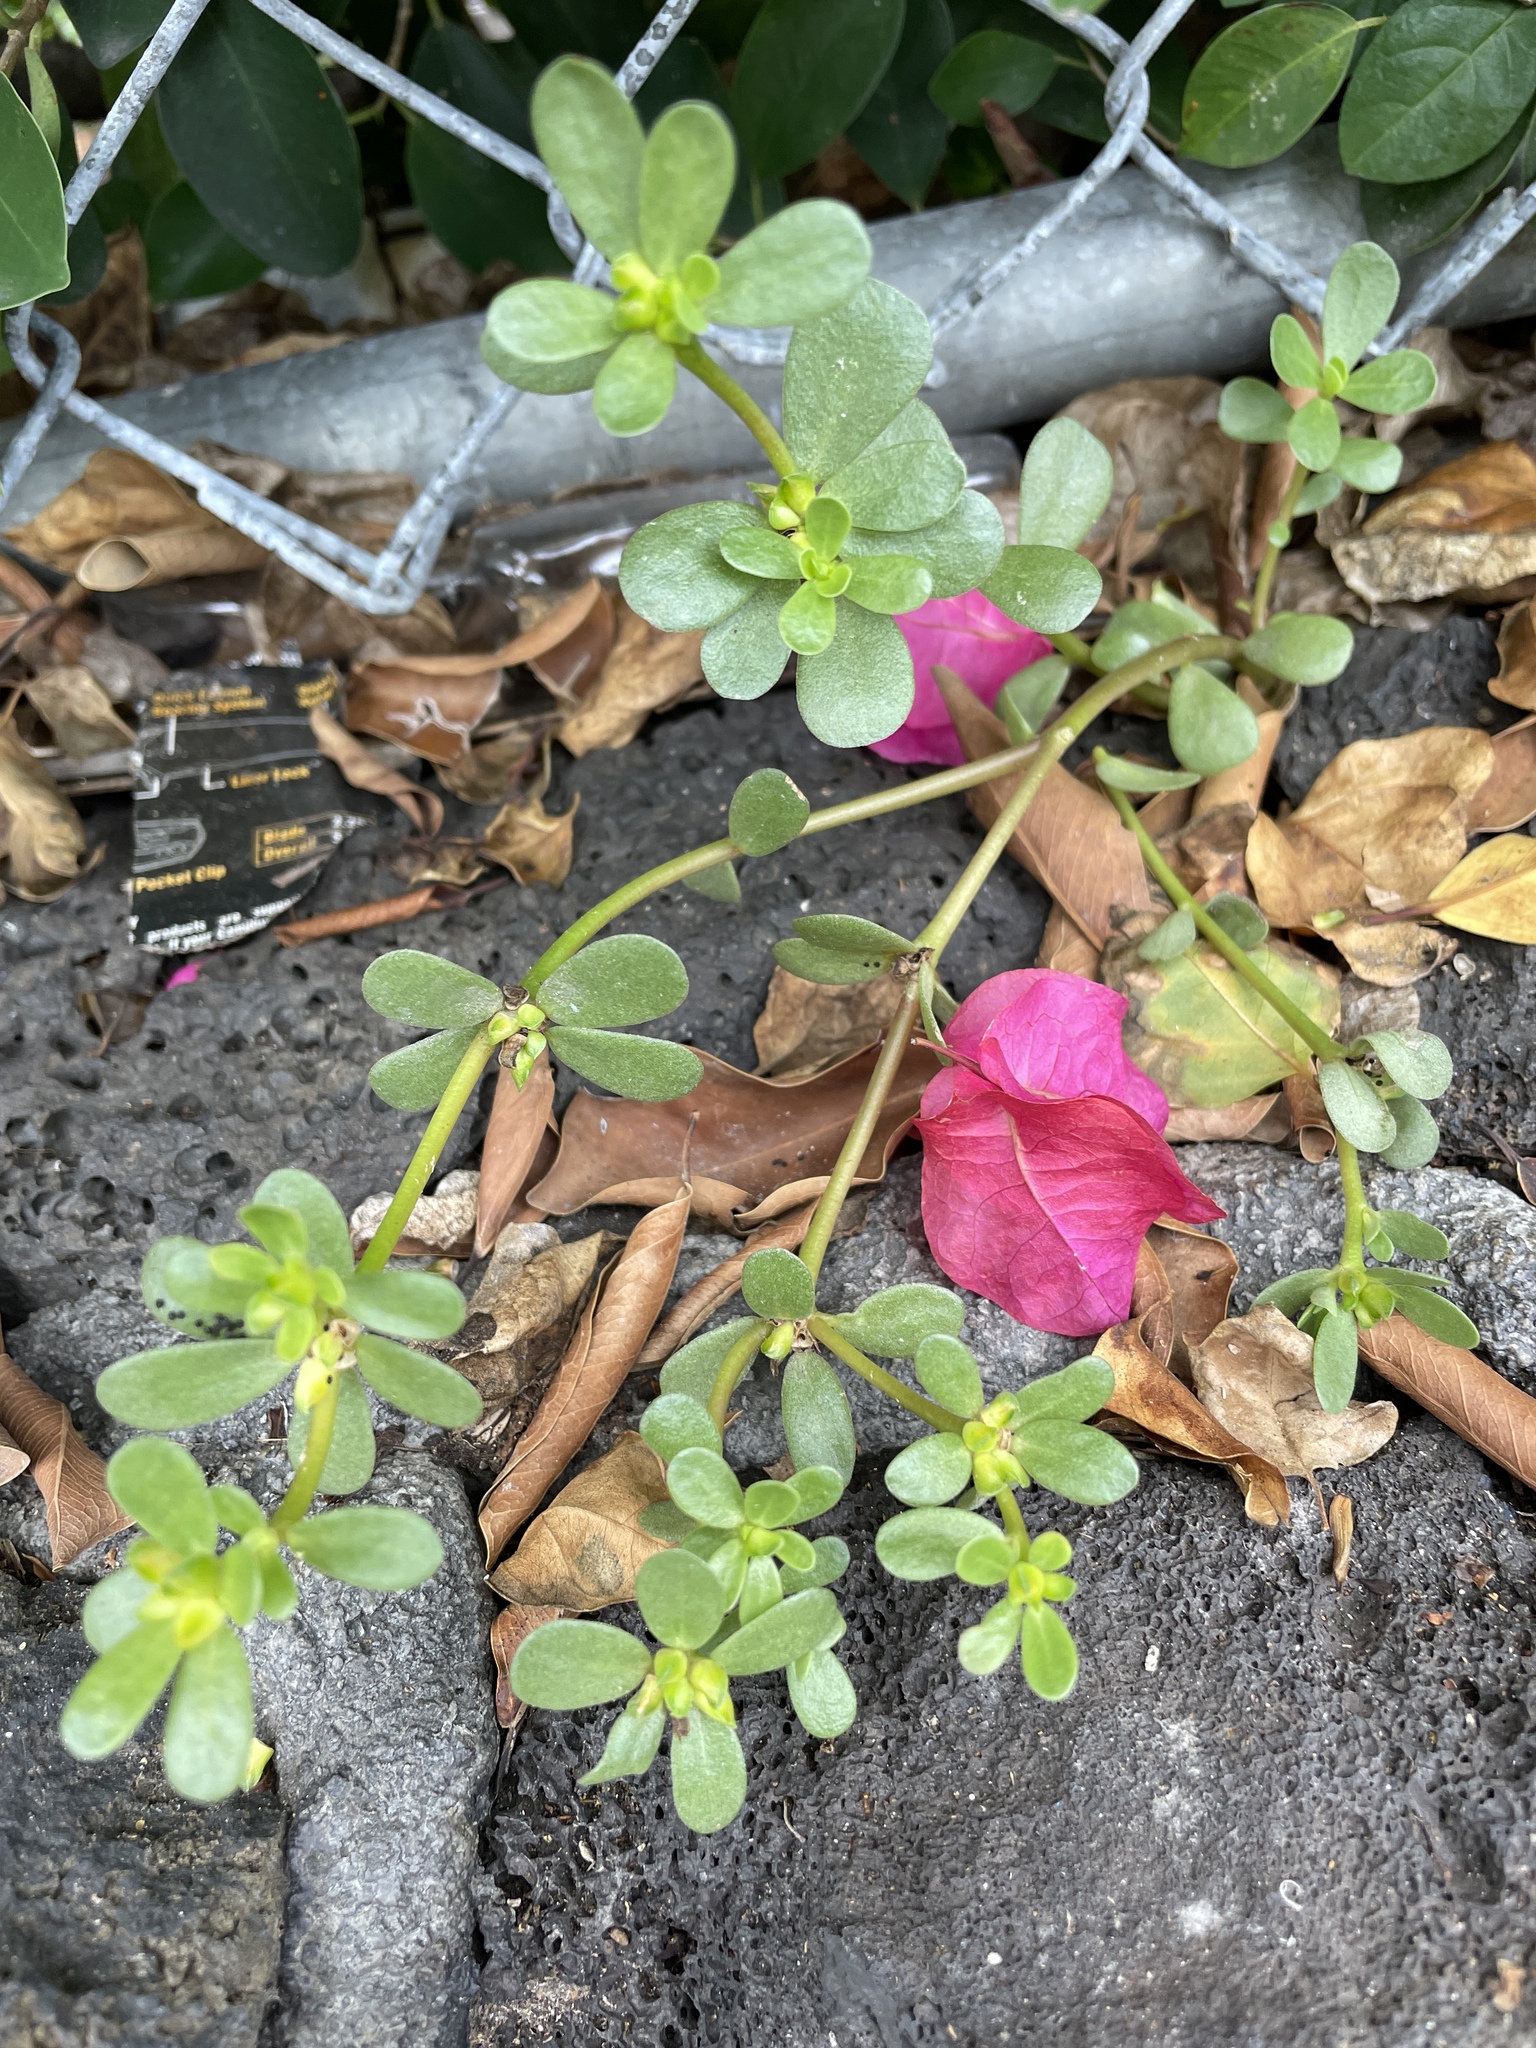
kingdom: Plantae
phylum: Tracheophyta
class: Magnoliopsida
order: Caryophyllales
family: Portulacaceae
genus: Portulaca
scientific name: Portulaca oleracea
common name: Common purslane
